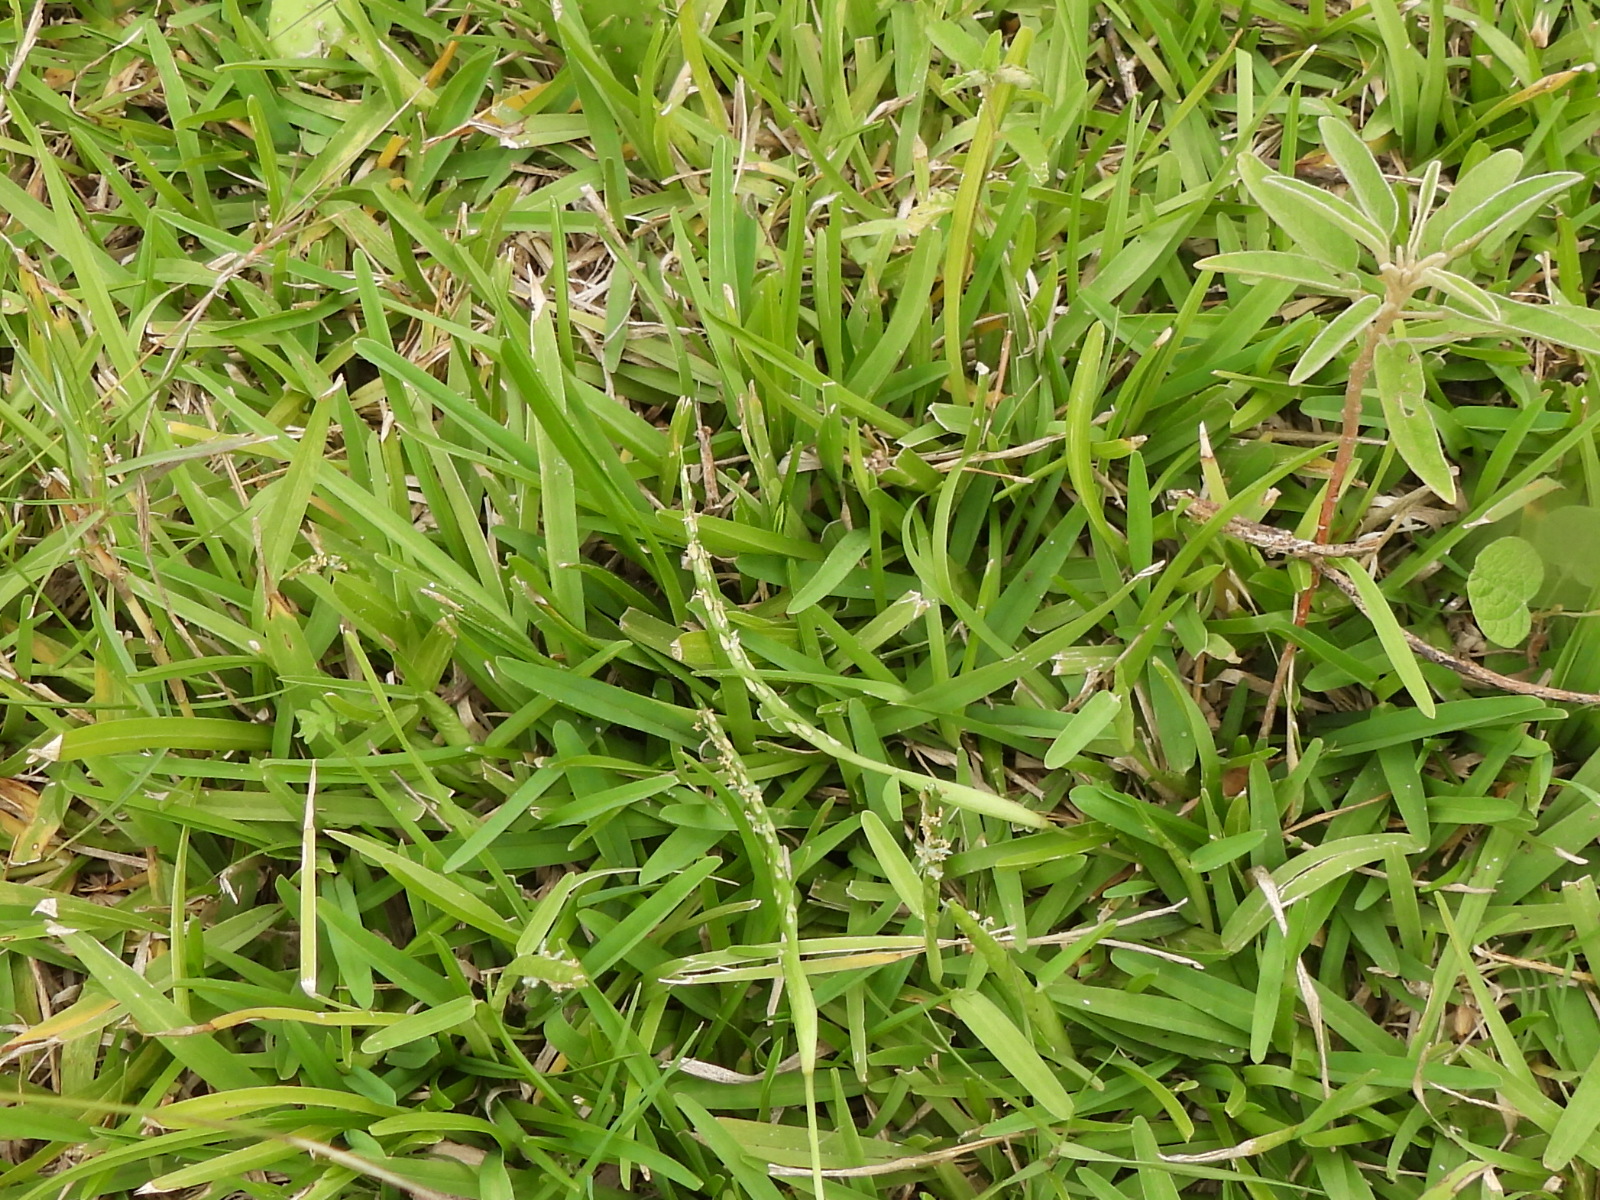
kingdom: Plantae
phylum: Tracheophyta
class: Liliopsida
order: Poales
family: Poaceae
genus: Stenotaphrum
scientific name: Stenotaphrum secundatum
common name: St. augustine grass
